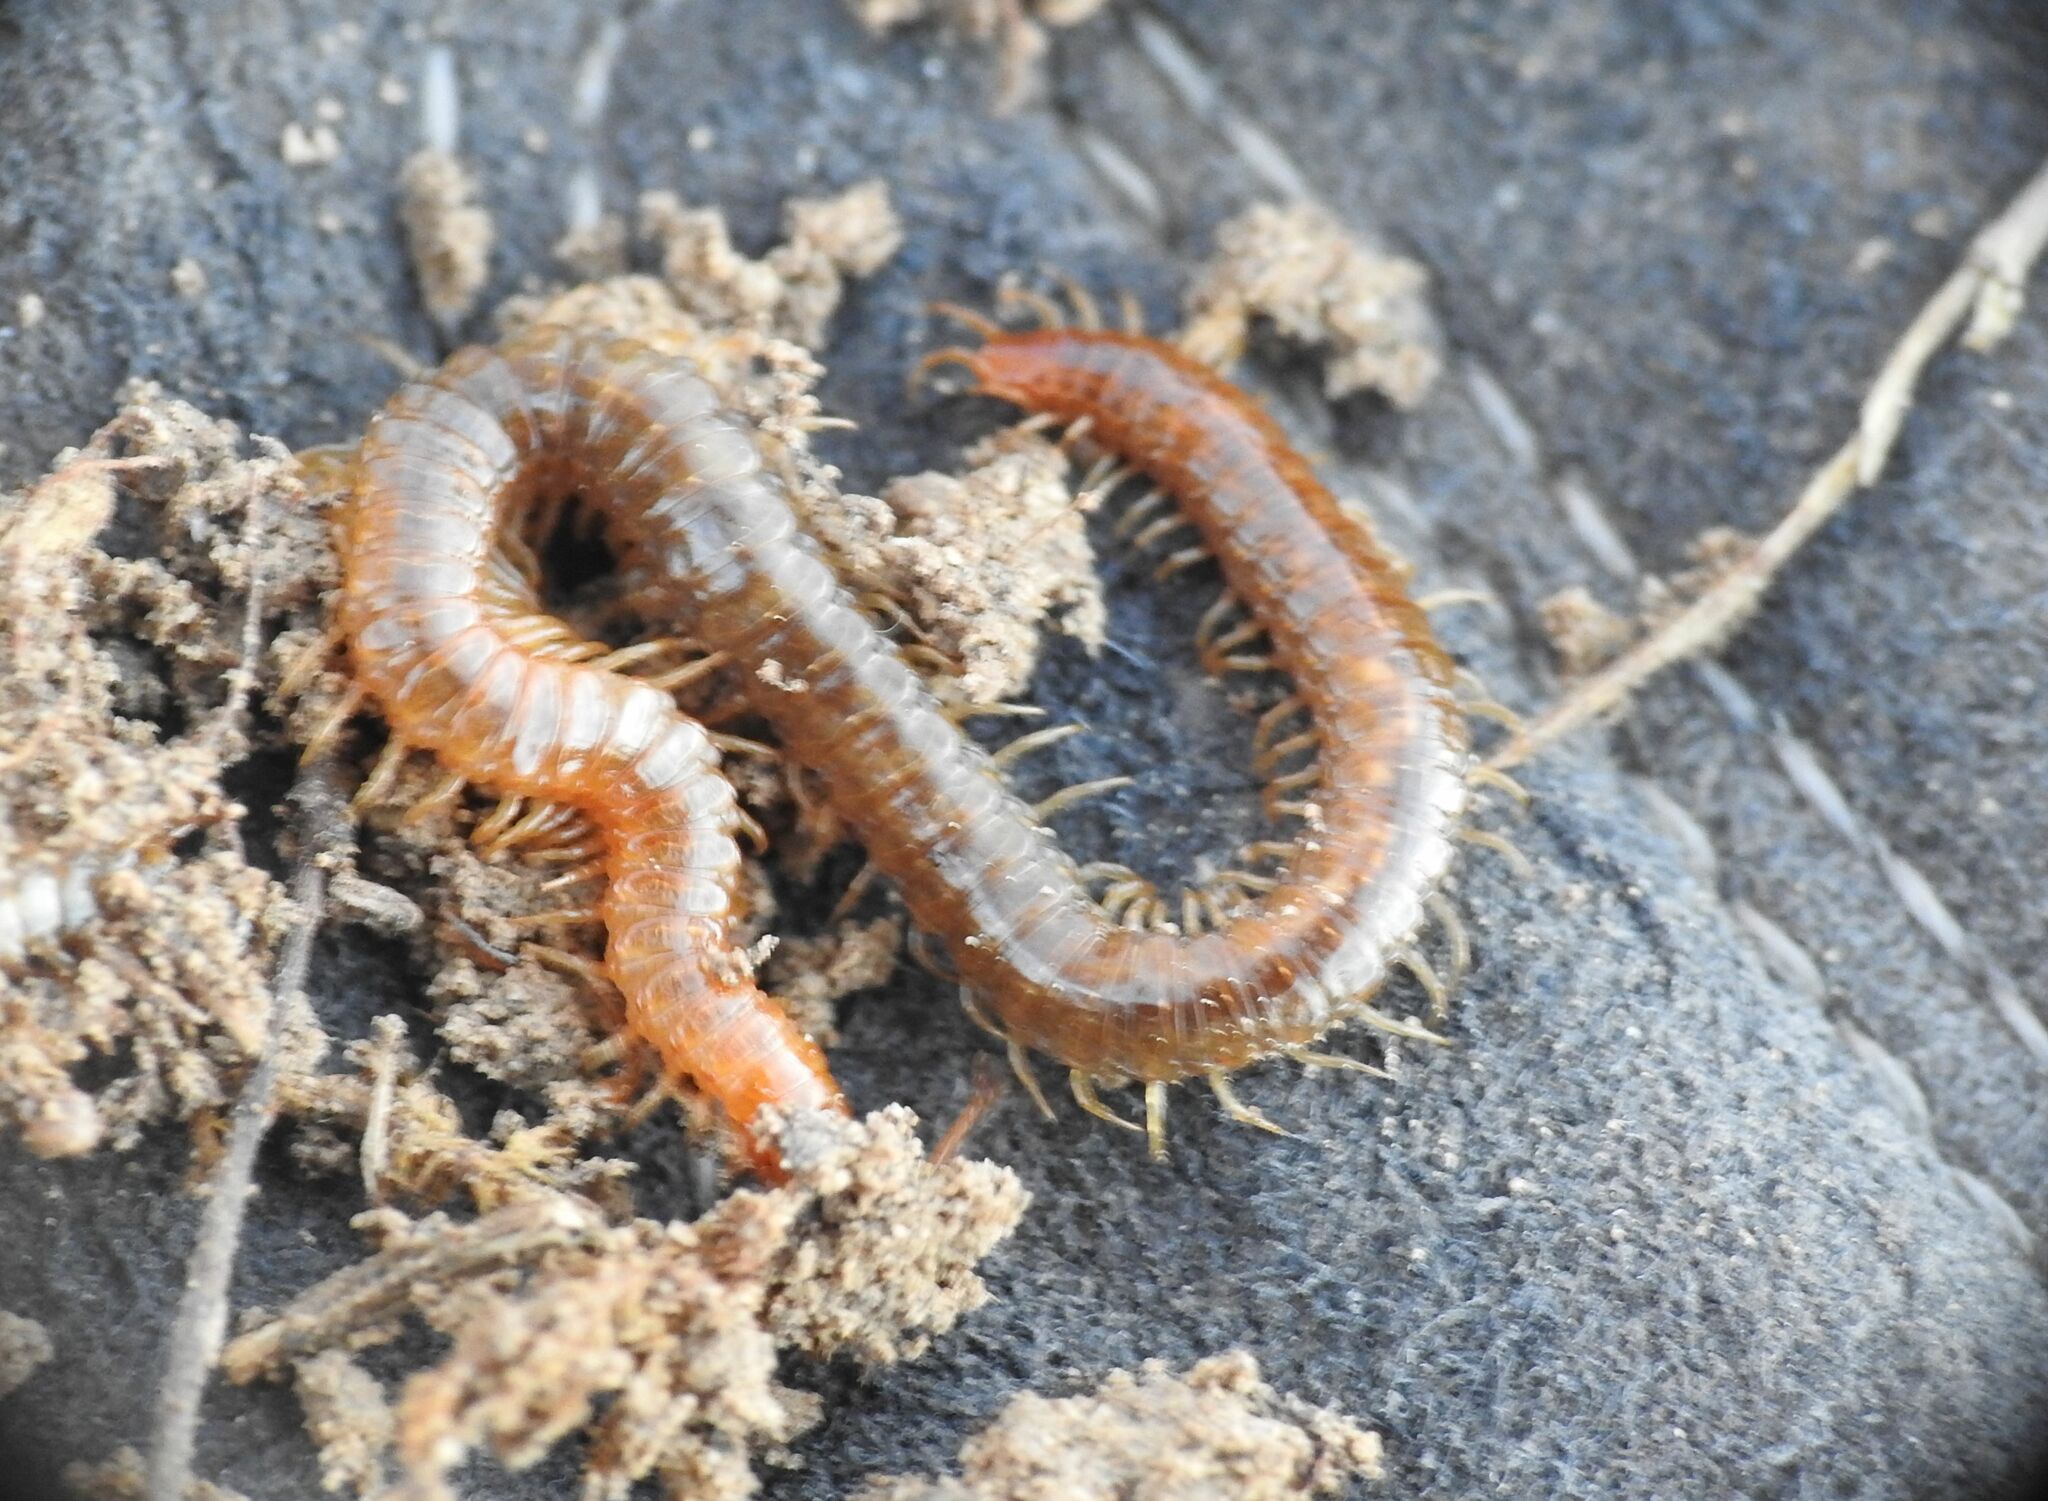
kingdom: Animalia
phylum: Arthropoda
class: Chilopoda
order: Geophilomorpha
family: Geophilidae
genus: Geophilus
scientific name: Geophilus carpophagus
